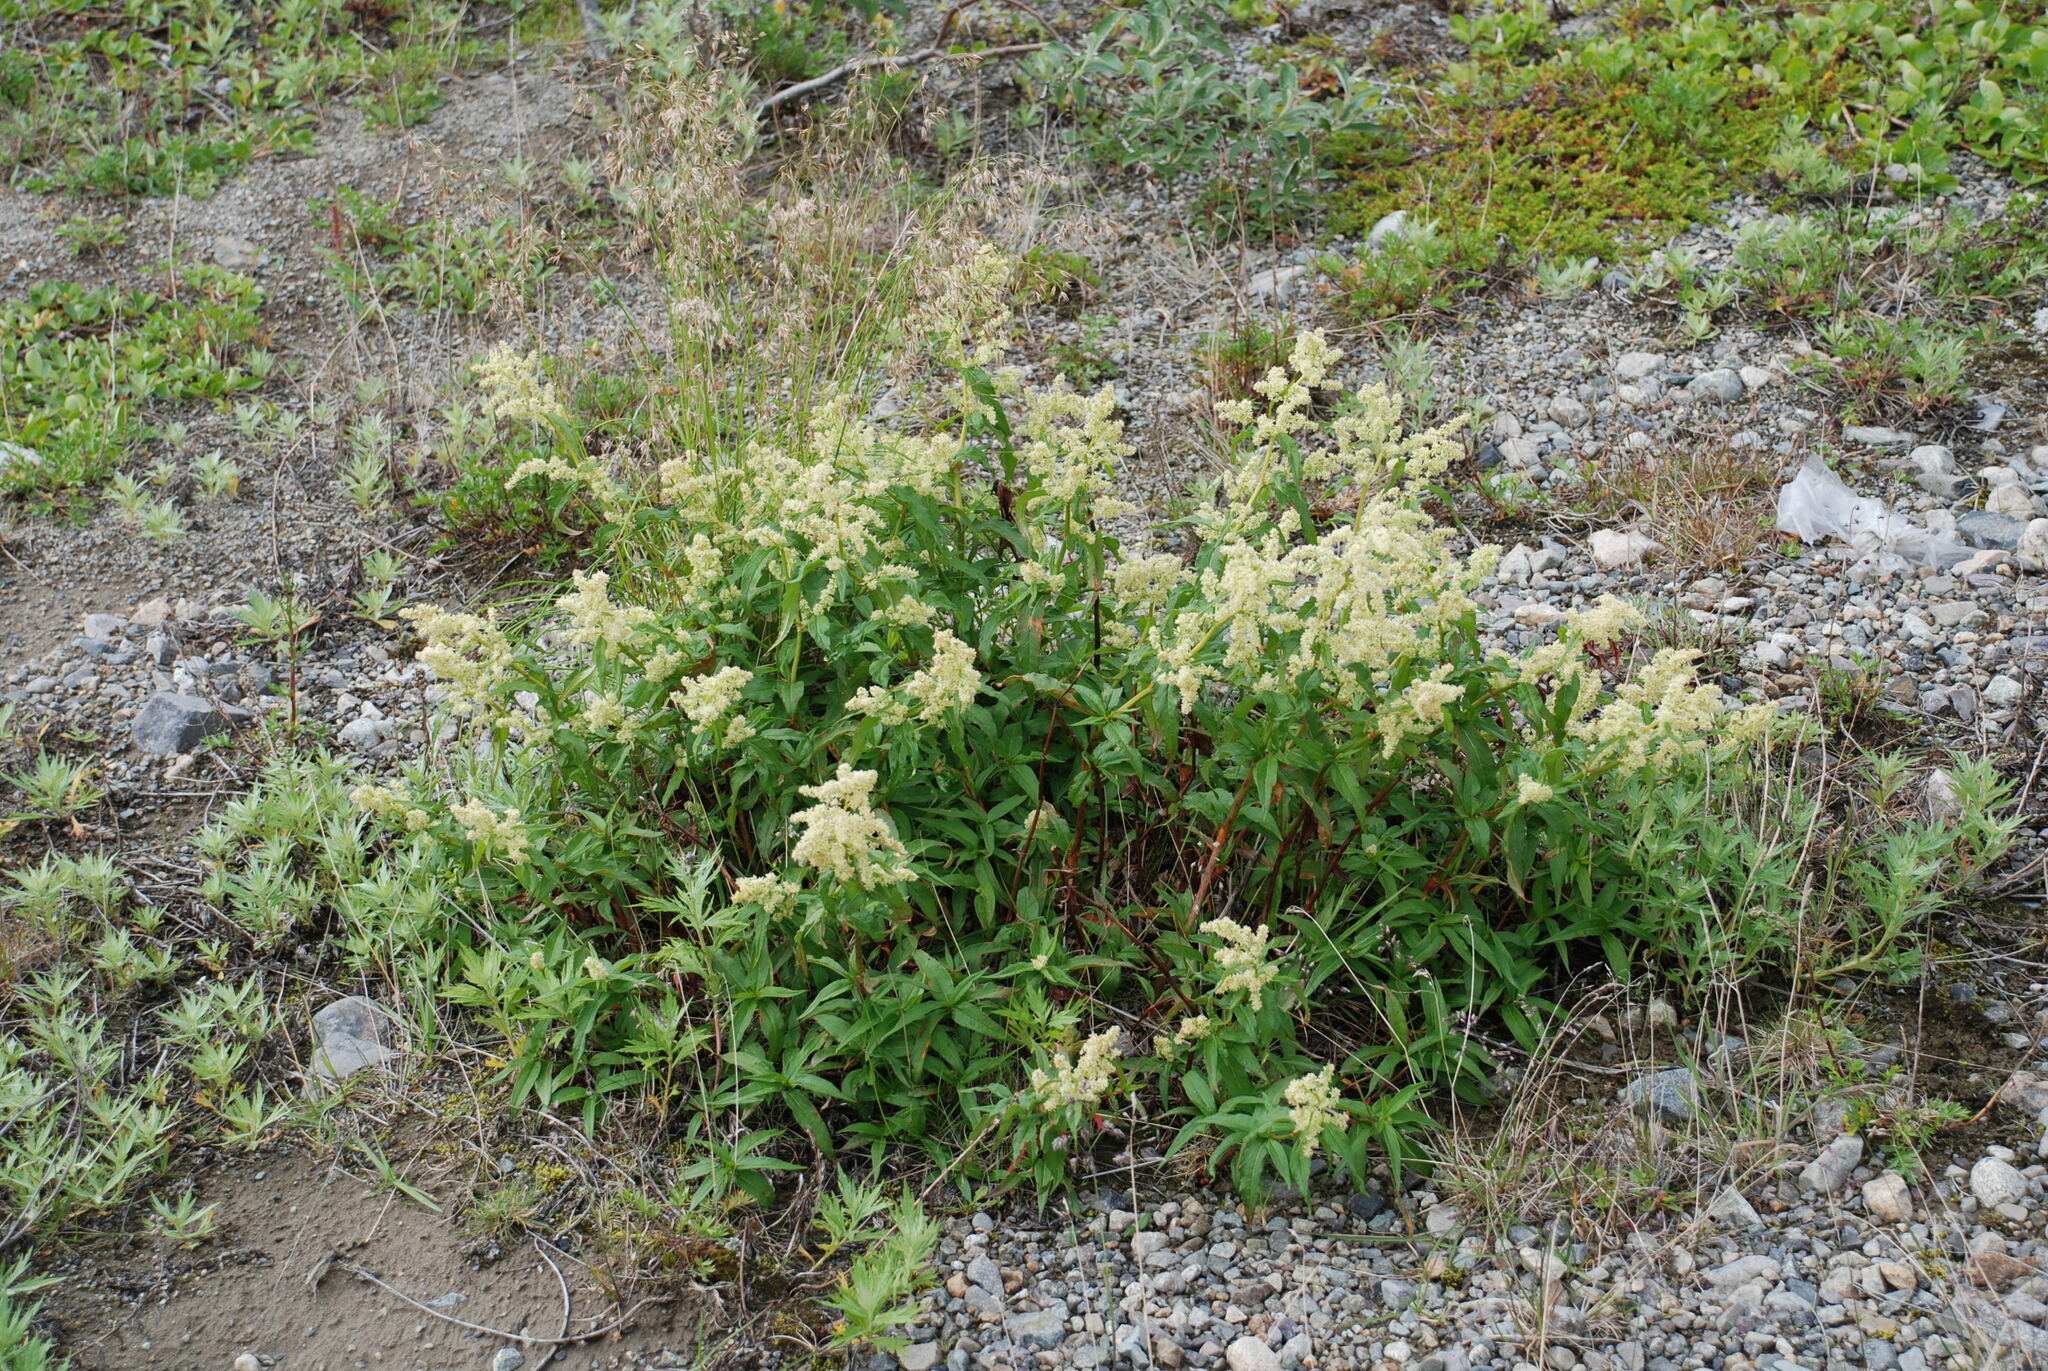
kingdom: Plantae
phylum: Tracheophyta
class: Magnoliopsida
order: Caryophyllales
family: Polygonaceae
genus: Koenigia
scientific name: Koenigia tripterocarpa
